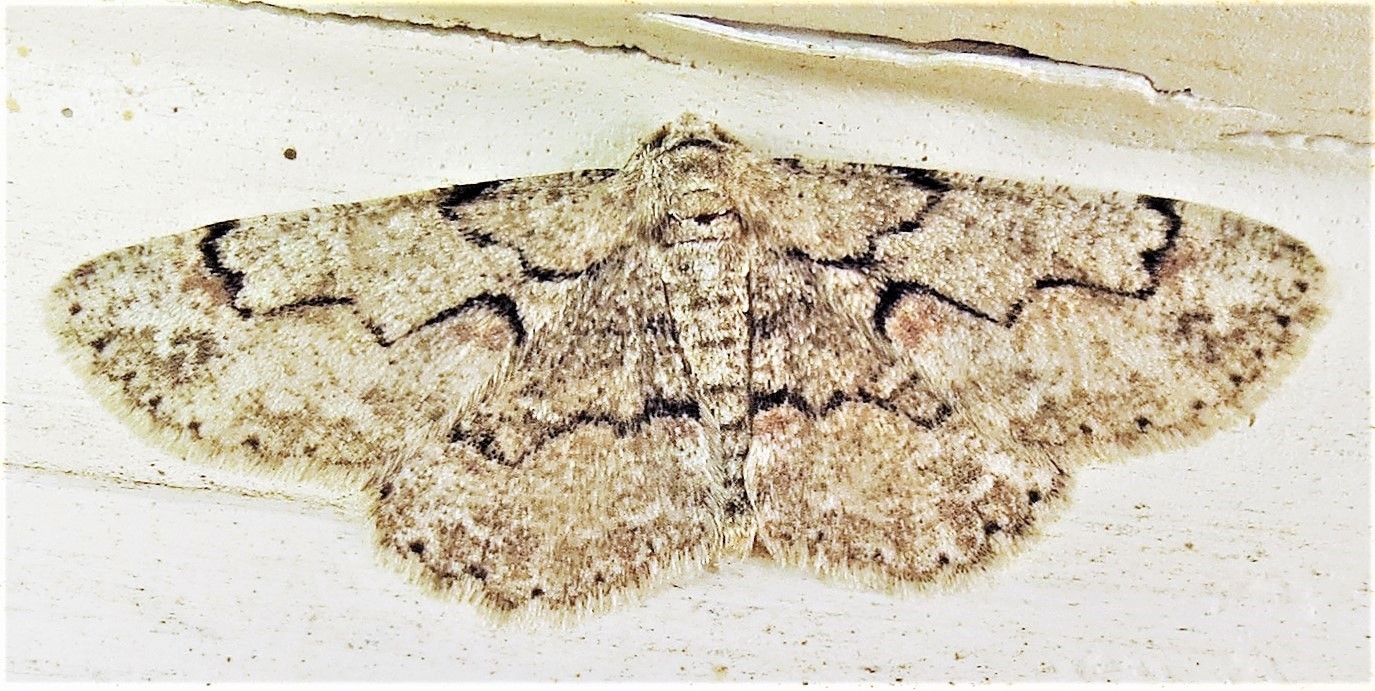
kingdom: Animalia
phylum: Arthropoda
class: Insecta
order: Lepidoptera
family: Geometridae
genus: Iridopsis
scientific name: Iridopsis defectaria
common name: Brown-shaded gray
